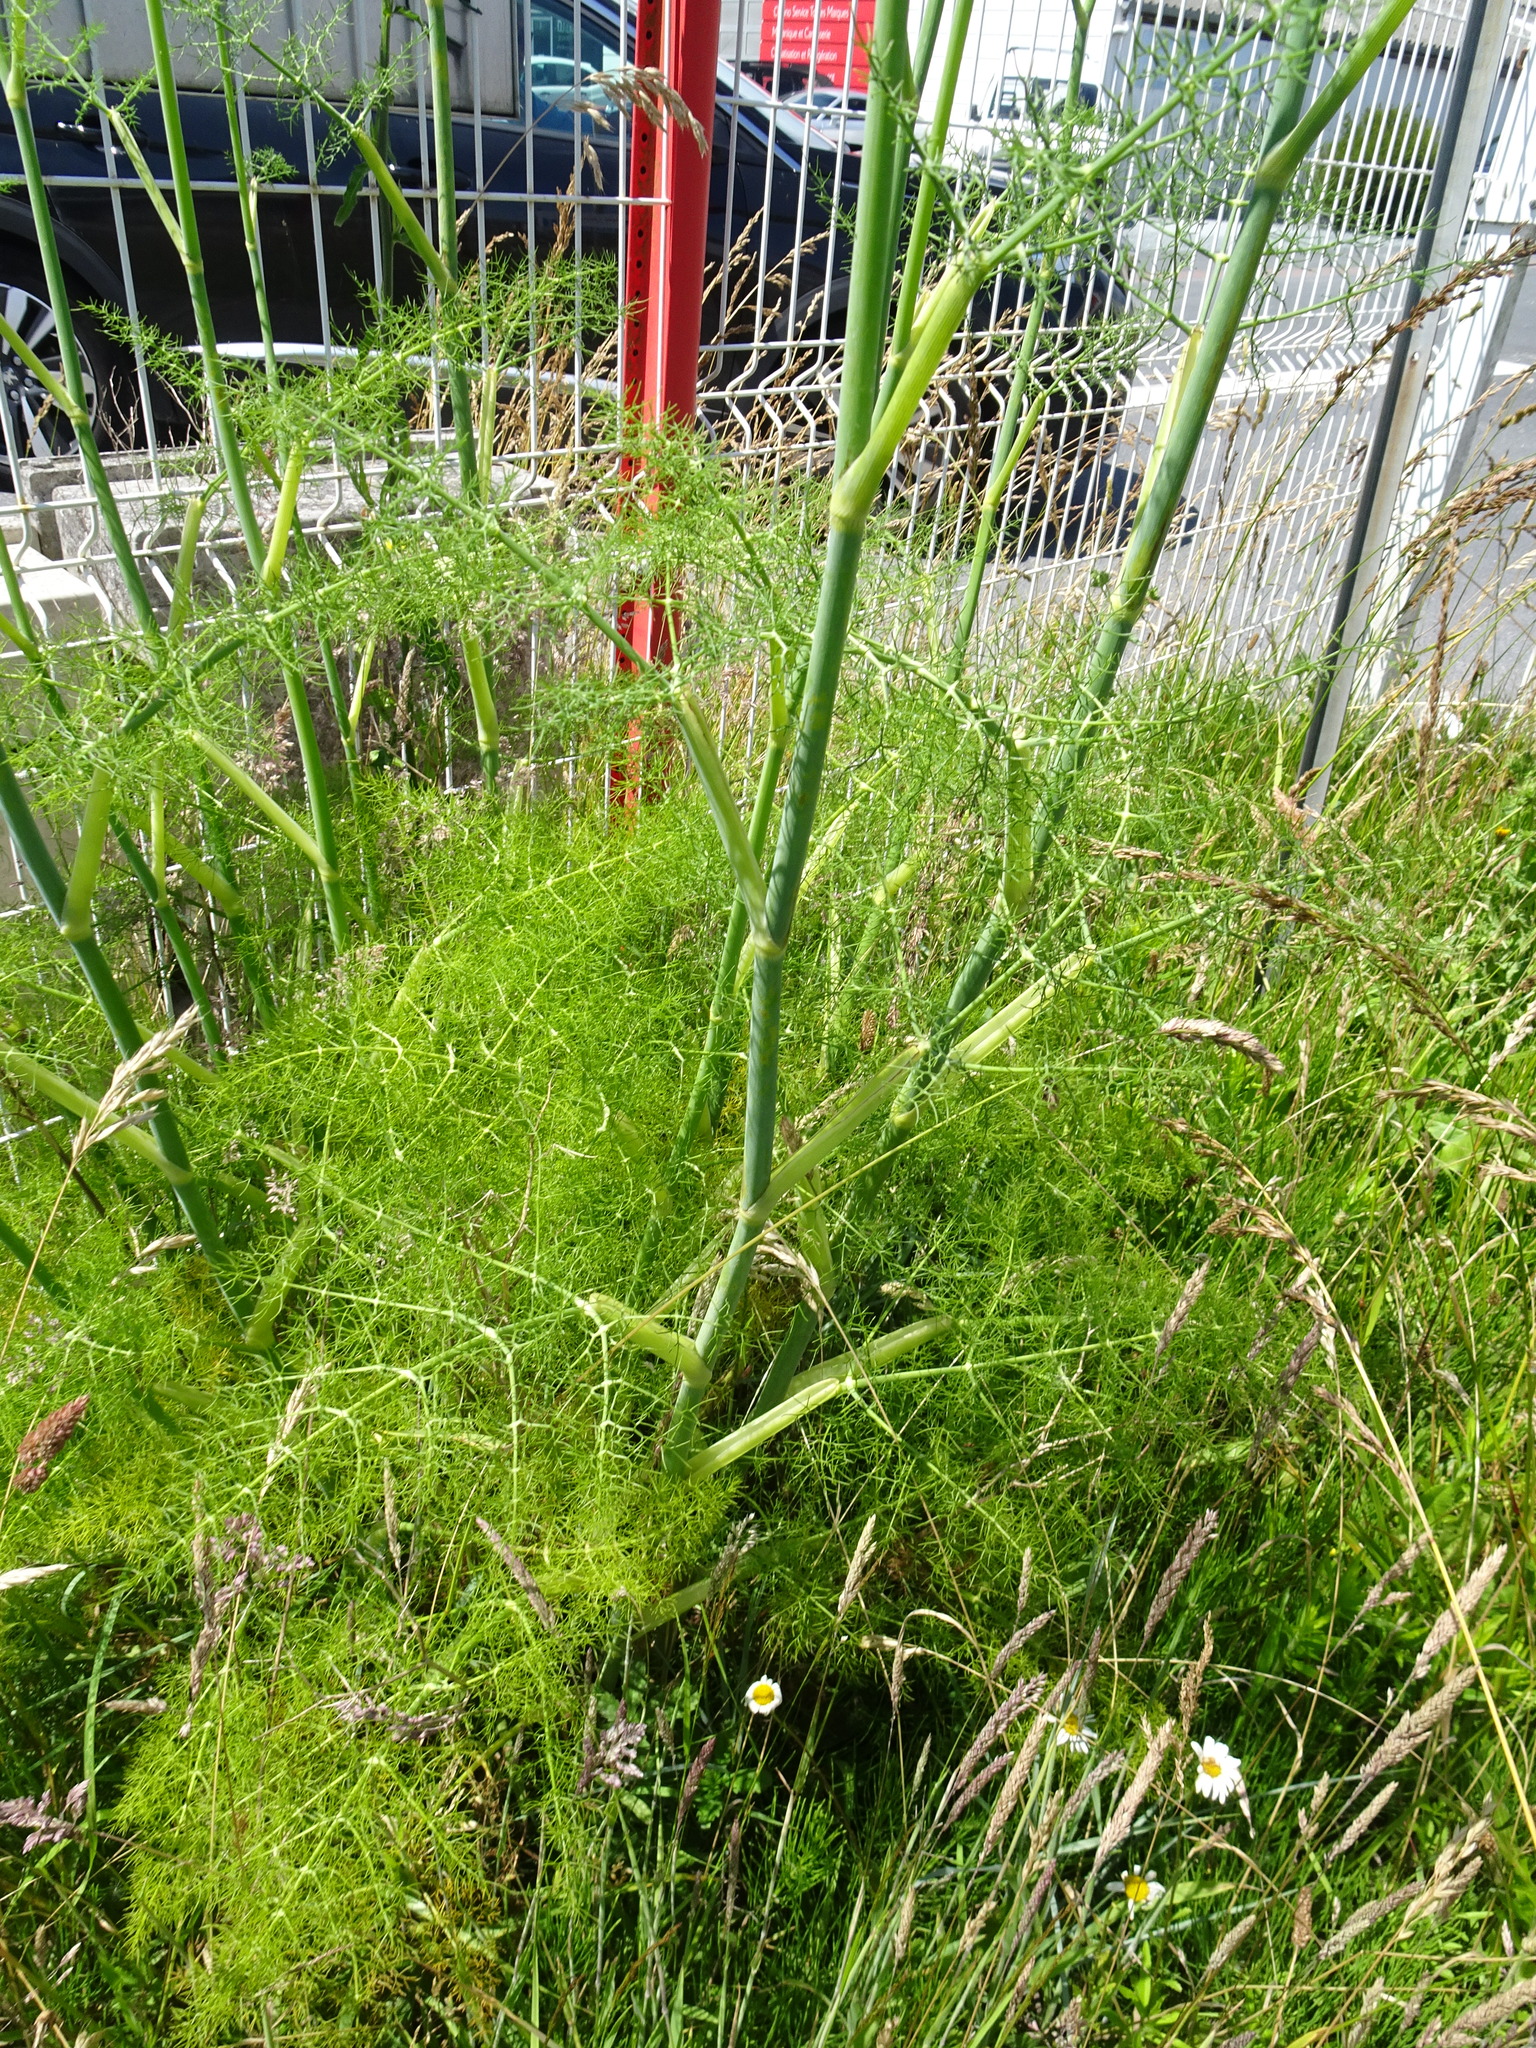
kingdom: Plantae
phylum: Tracheophyta
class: Magnoliopsida
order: Apiales
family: Apiaceae
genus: Foeniculum
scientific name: Foeniculum vulgare
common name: Fennel
